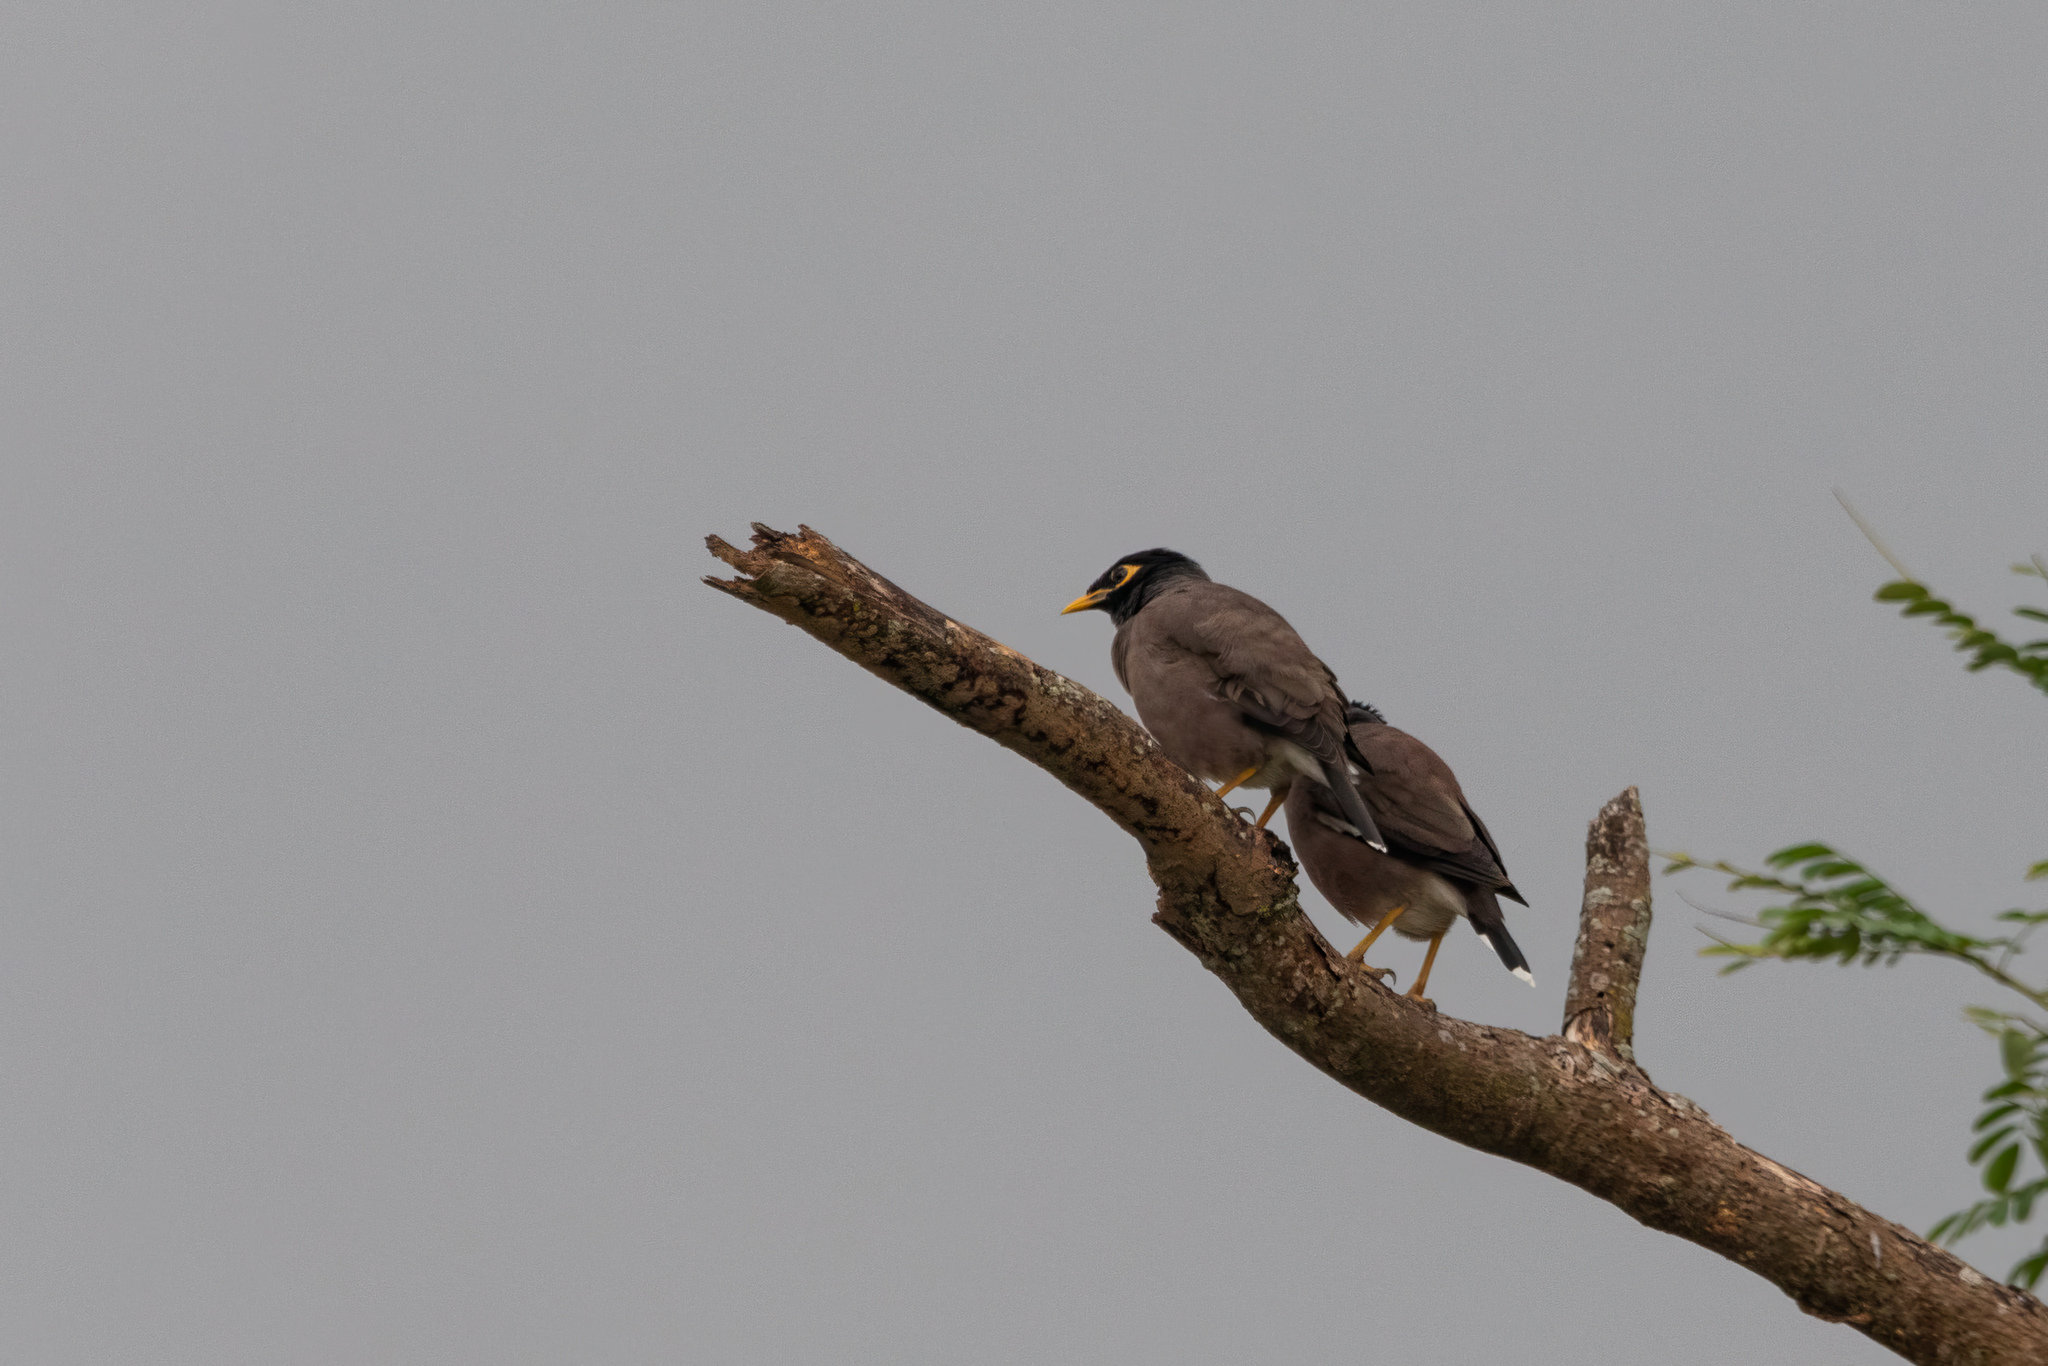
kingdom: Animalia
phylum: Chordata
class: Aves
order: Passeriformes
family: Sturnidae
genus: Acridotheres
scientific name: Acridotheres tristis
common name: Common myna
